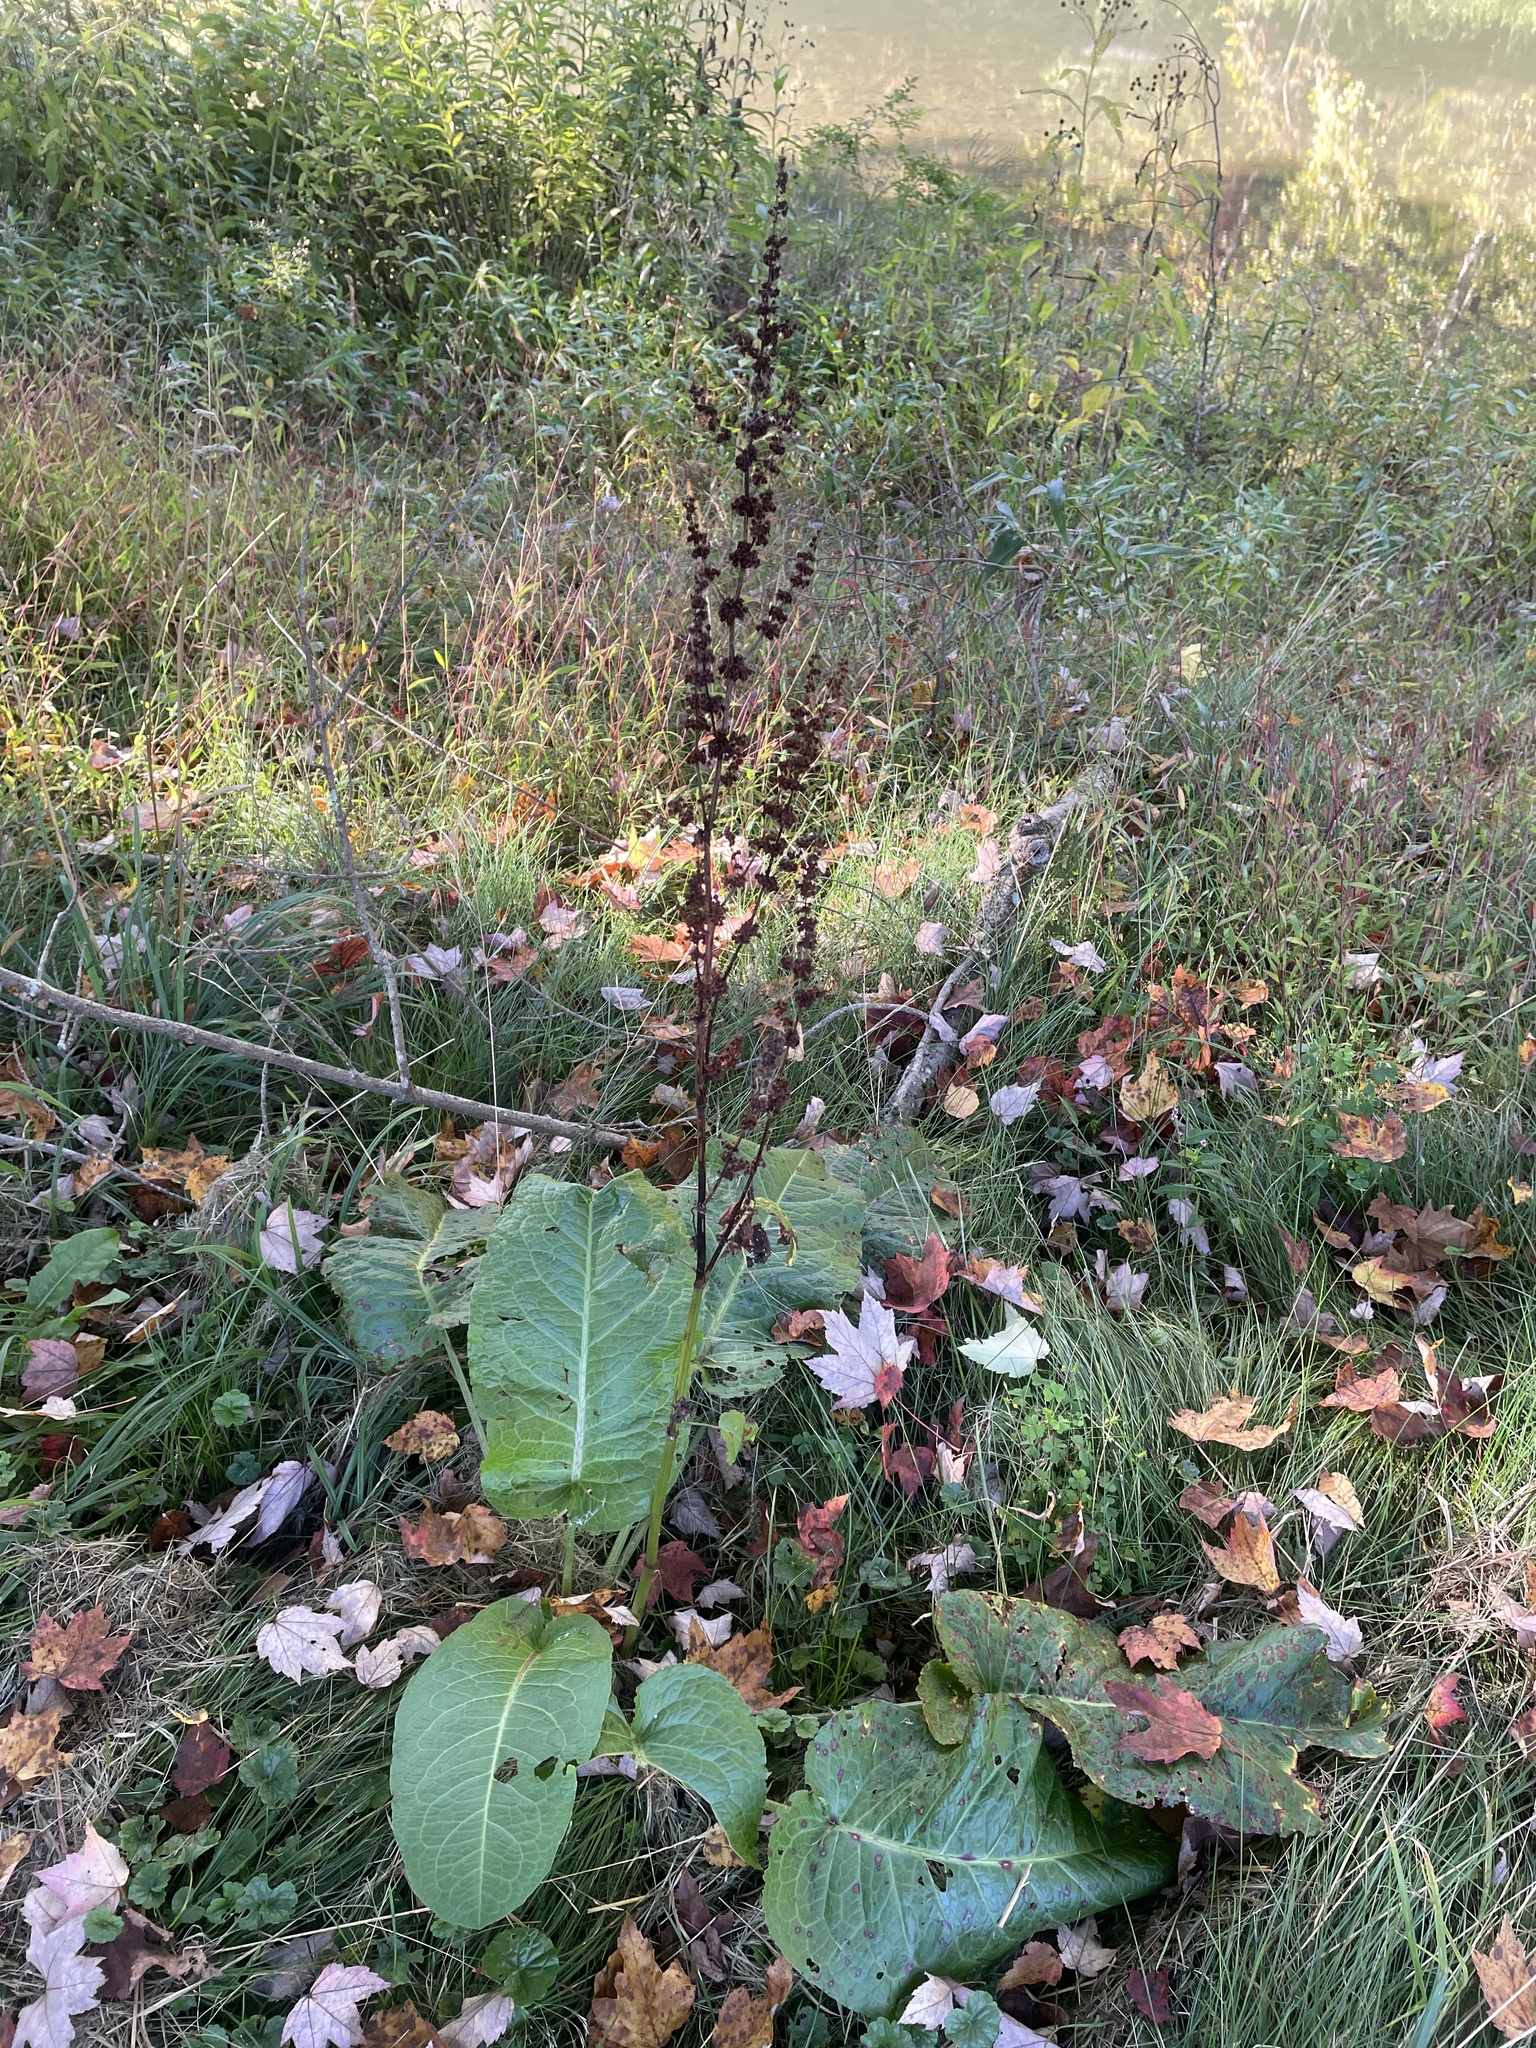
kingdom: Plantae
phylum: Tracheophyta
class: Magnoliopsida
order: Caryophyllales
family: Polygonaceae
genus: Rumex
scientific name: Rumex obtusifolius
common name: Bitter dock
